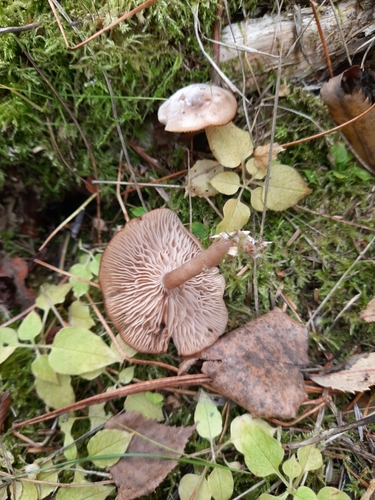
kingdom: Fungi
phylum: Basidiomycota
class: Agaricomycetes
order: Agaricales
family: Tricholomataceae
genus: Clitocybe
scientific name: Clitocybe
